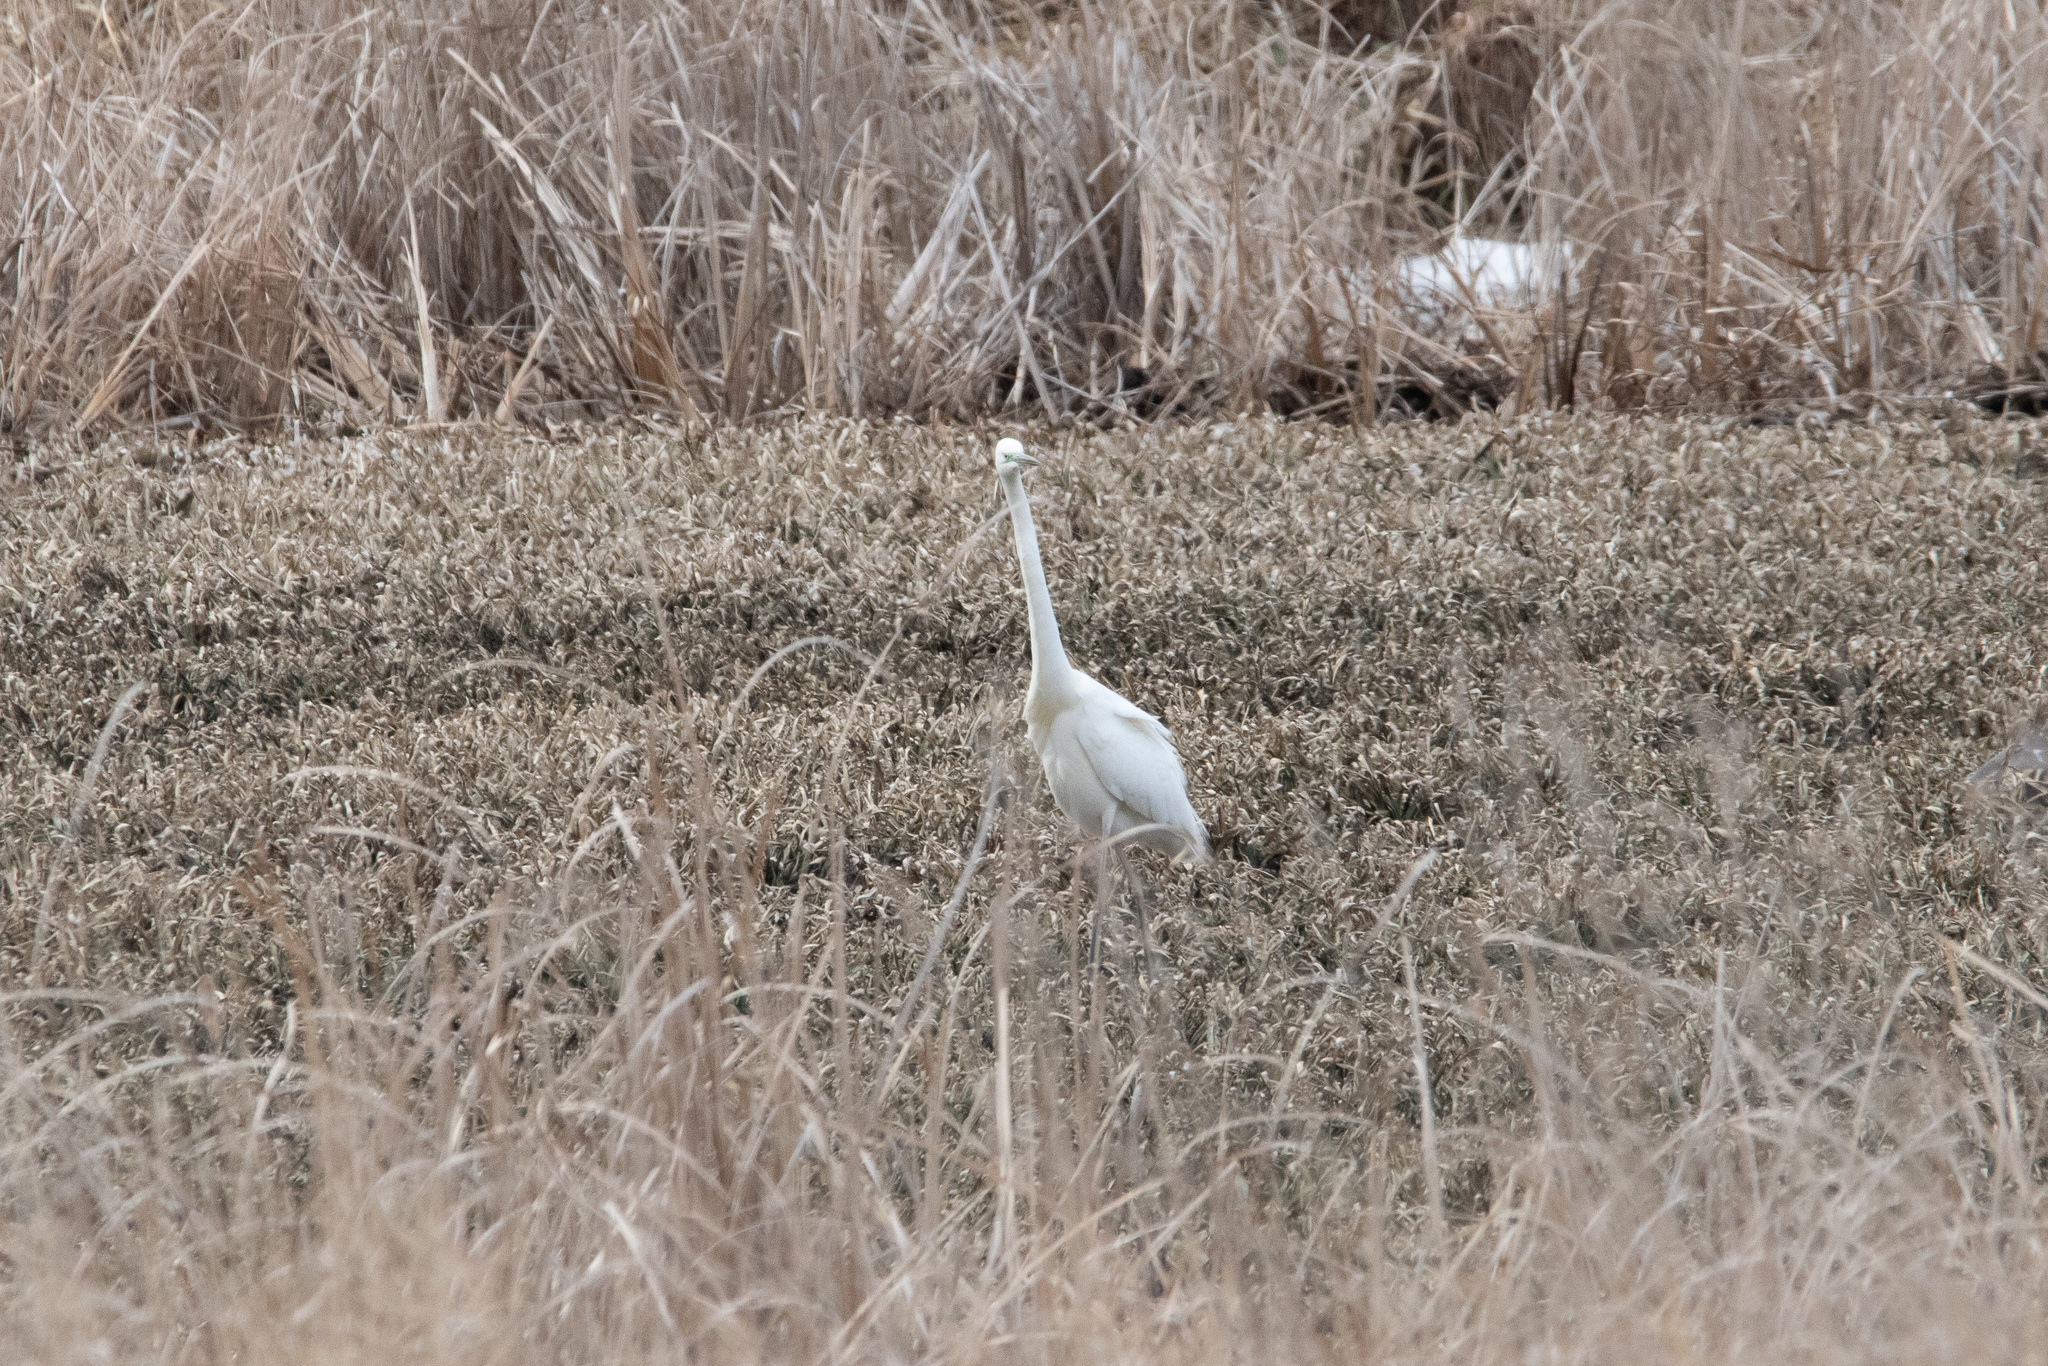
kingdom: Animalia
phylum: Chordata
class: Aves
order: Pelecaniformes
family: Ardeidae
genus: Ardea
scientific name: Ardea alba
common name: Great egret
